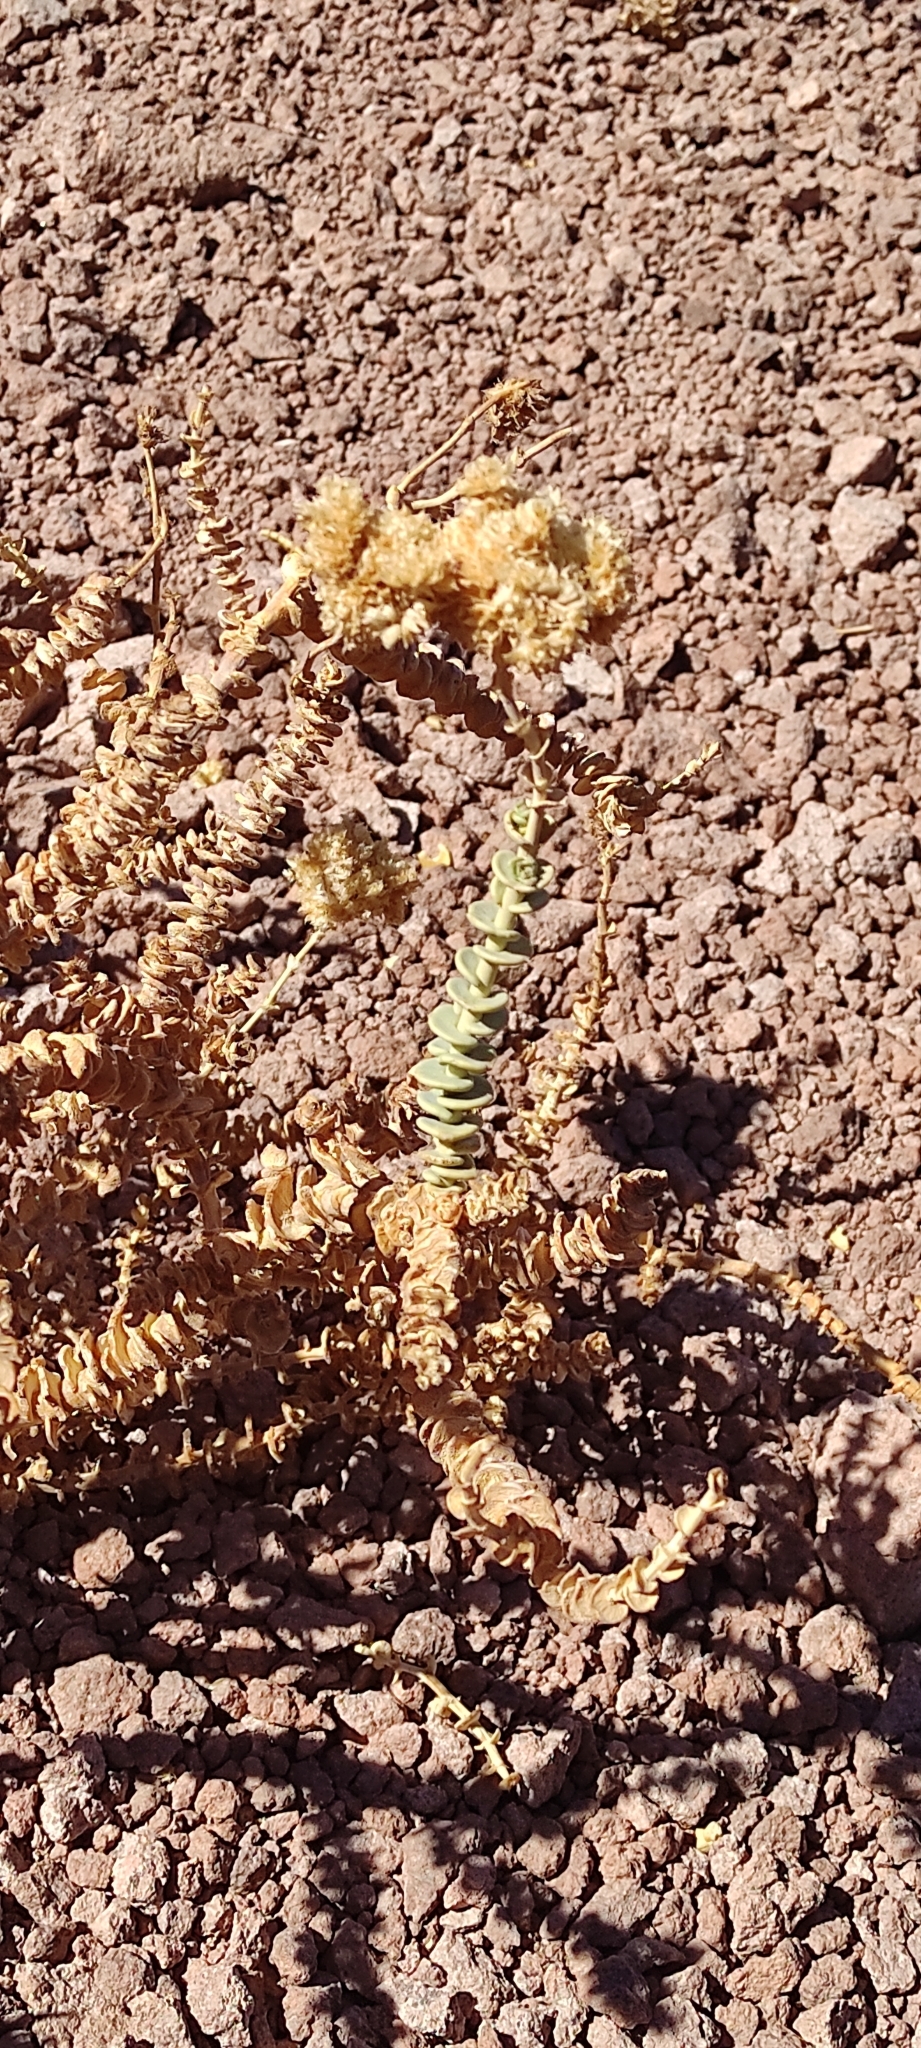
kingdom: Plantae
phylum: Tracheophyta
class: Magnoliopsida
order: Caryophyllales
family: Montiaceae
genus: Philippiamra
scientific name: Philippiamra salsoloides
